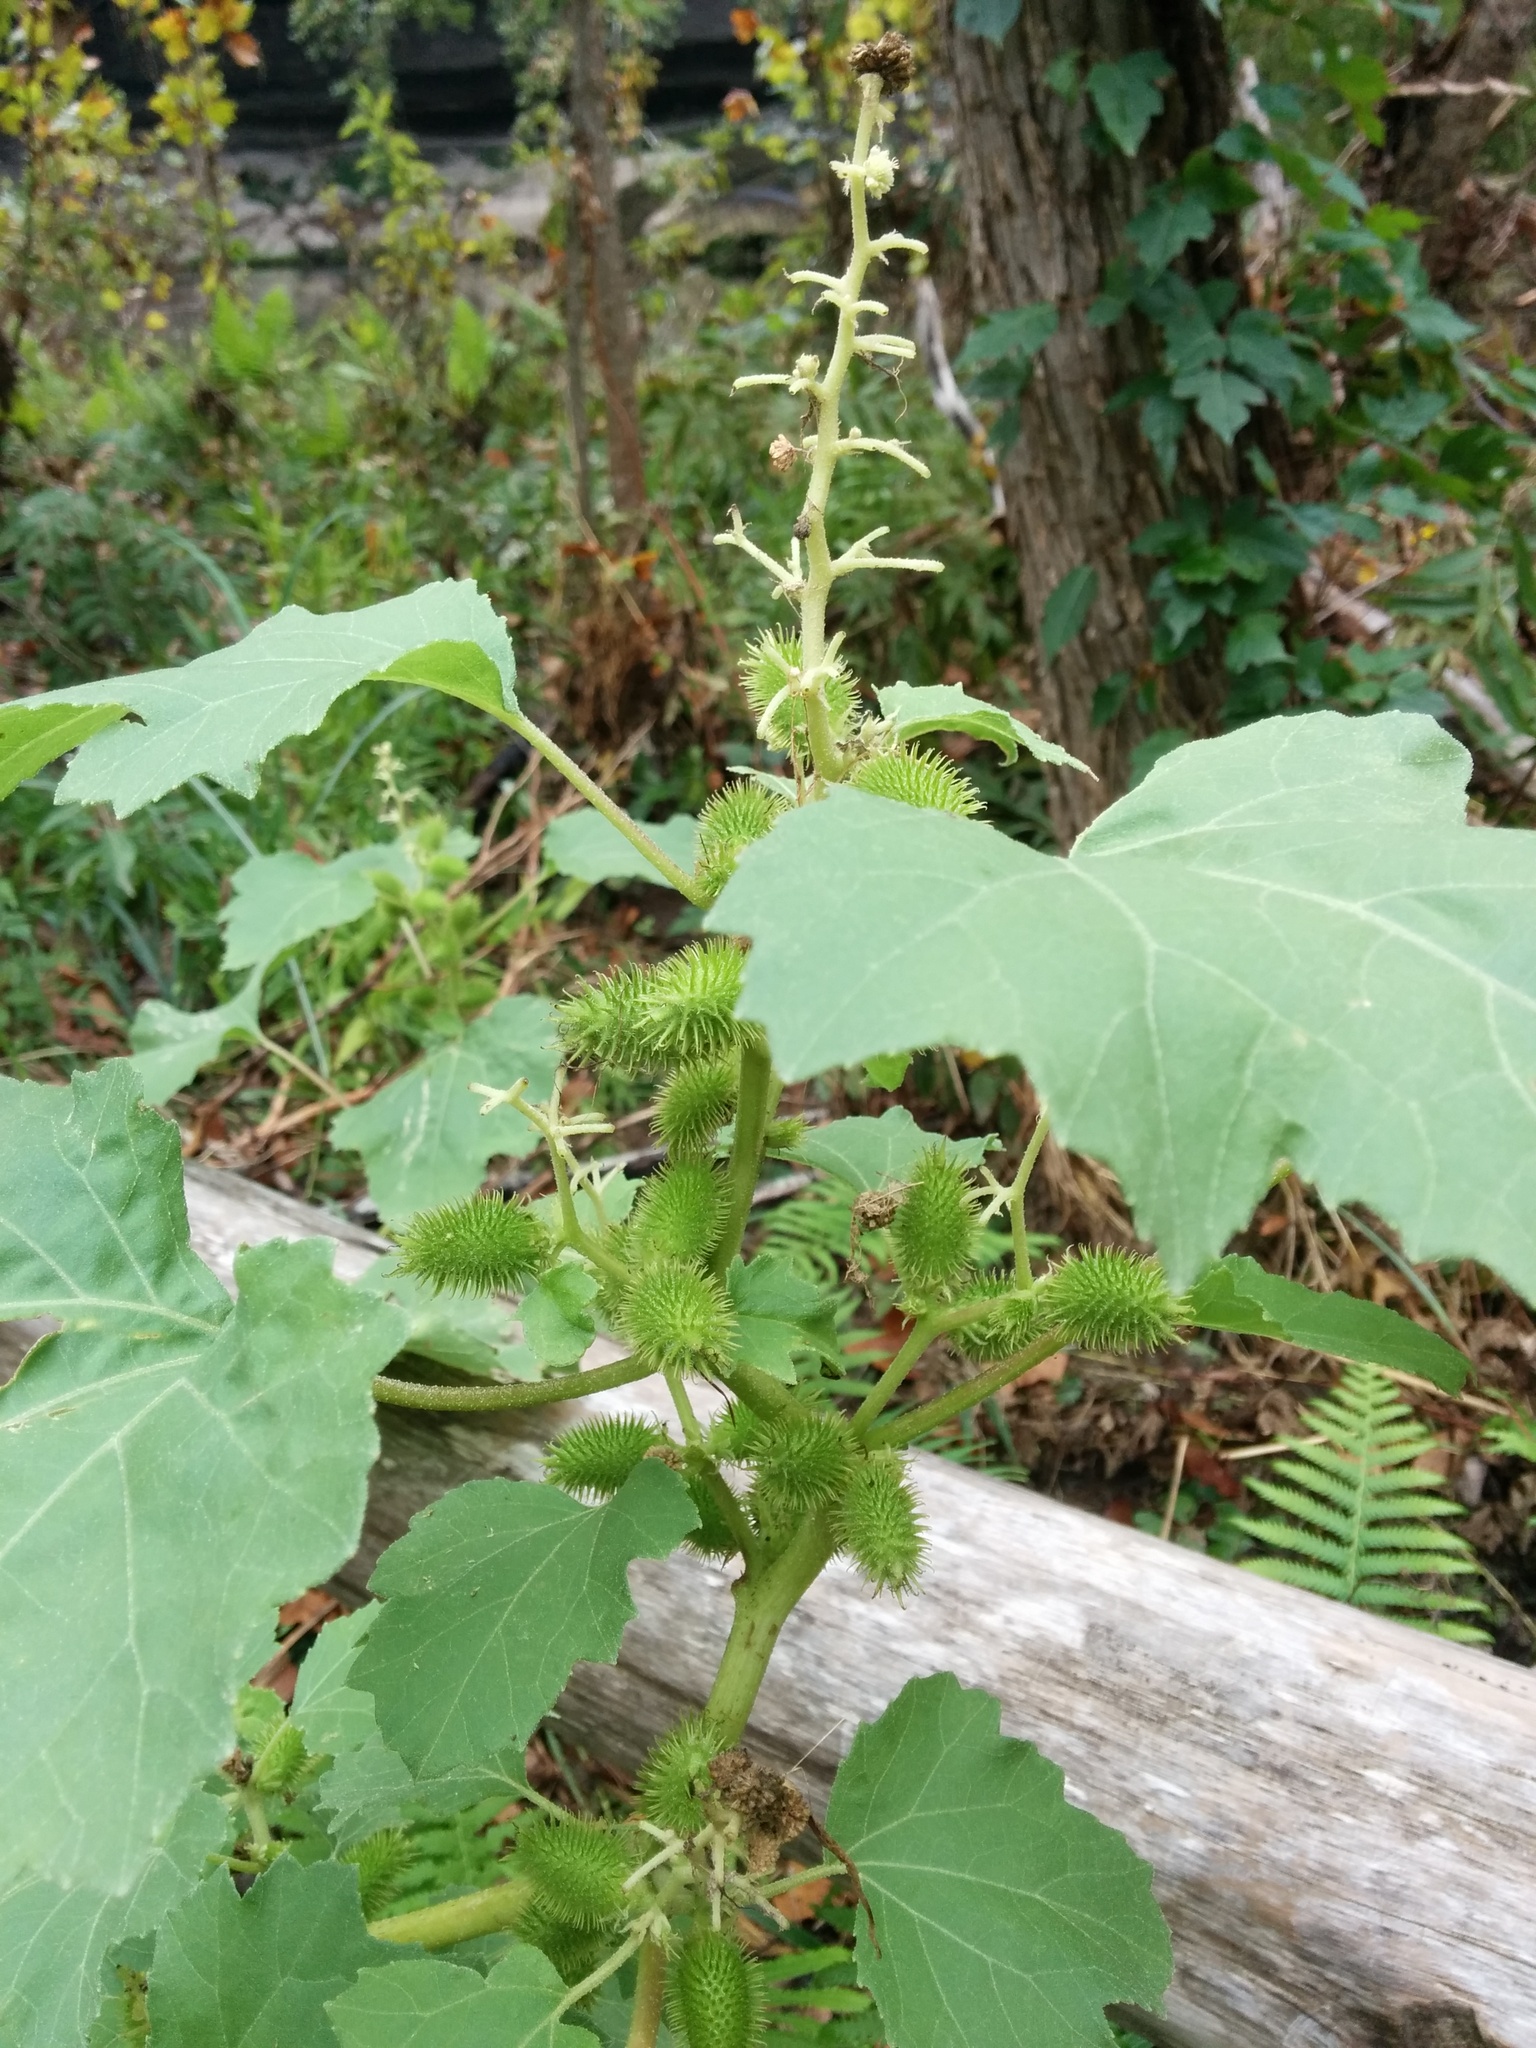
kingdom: Plantae
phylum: Tracheophyta
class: Magnoliopsida
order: Asterales
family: Asteraceae
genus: Xanthium
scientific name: Xanthium strumarium
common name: Rough cocklebur
